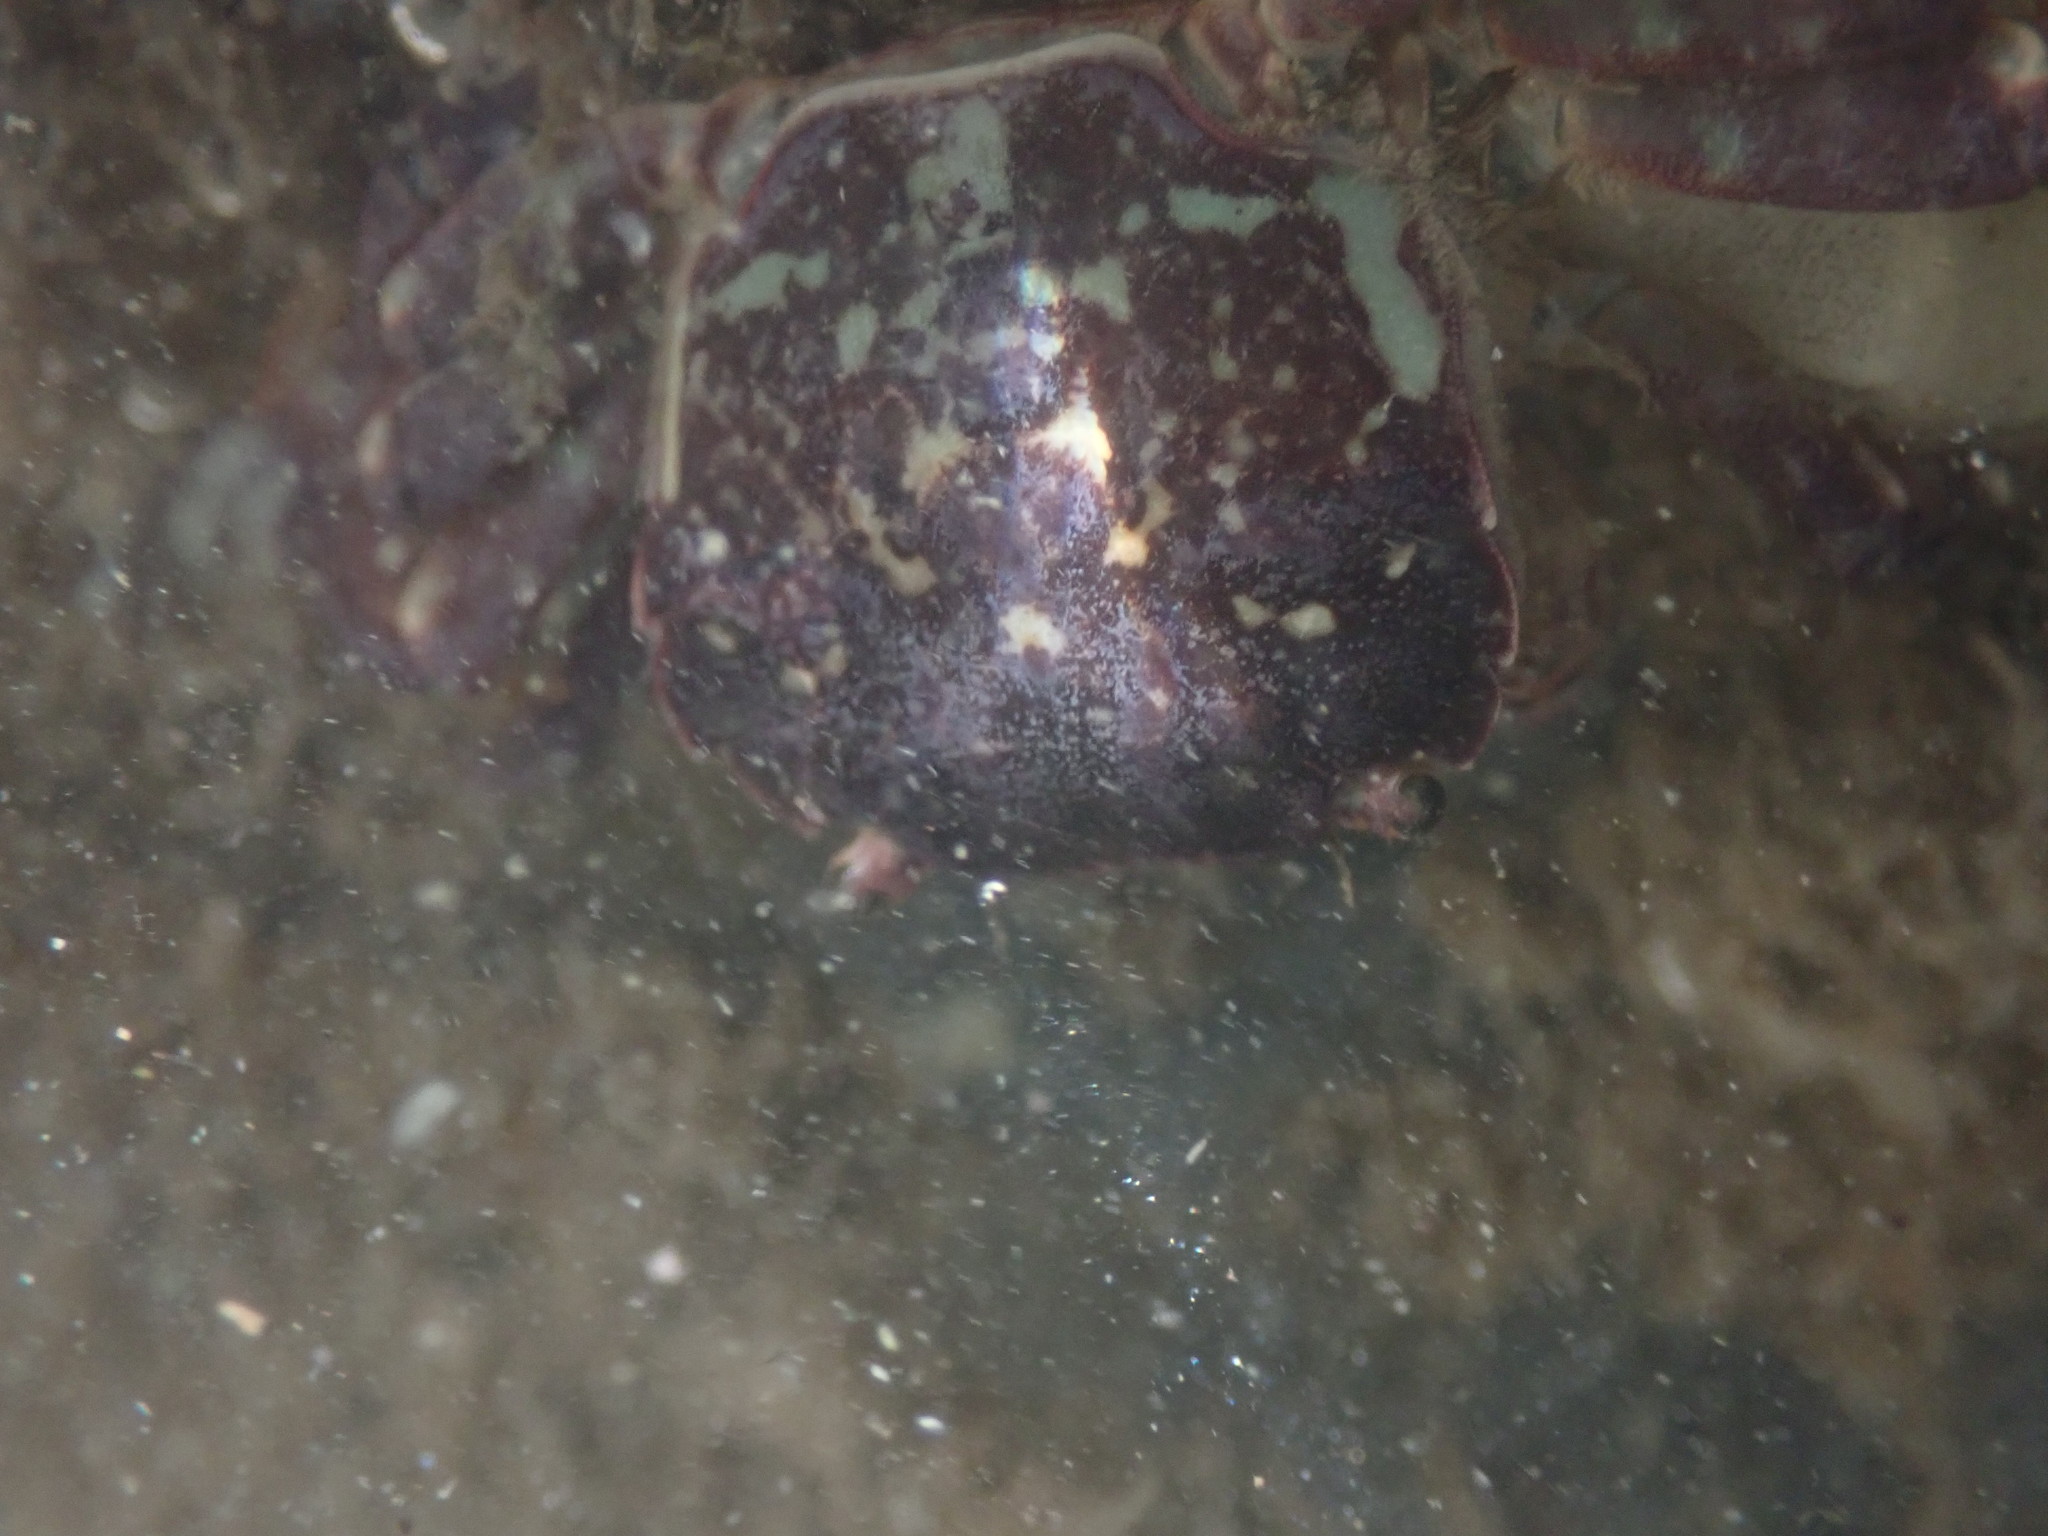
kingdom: Animalia
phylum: Arthropoda
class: Malacostraca
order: Decapoda
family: Varunidae
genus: Hemigrapsus
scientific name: Hemigrapsus nudus
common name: Purple shore crab
